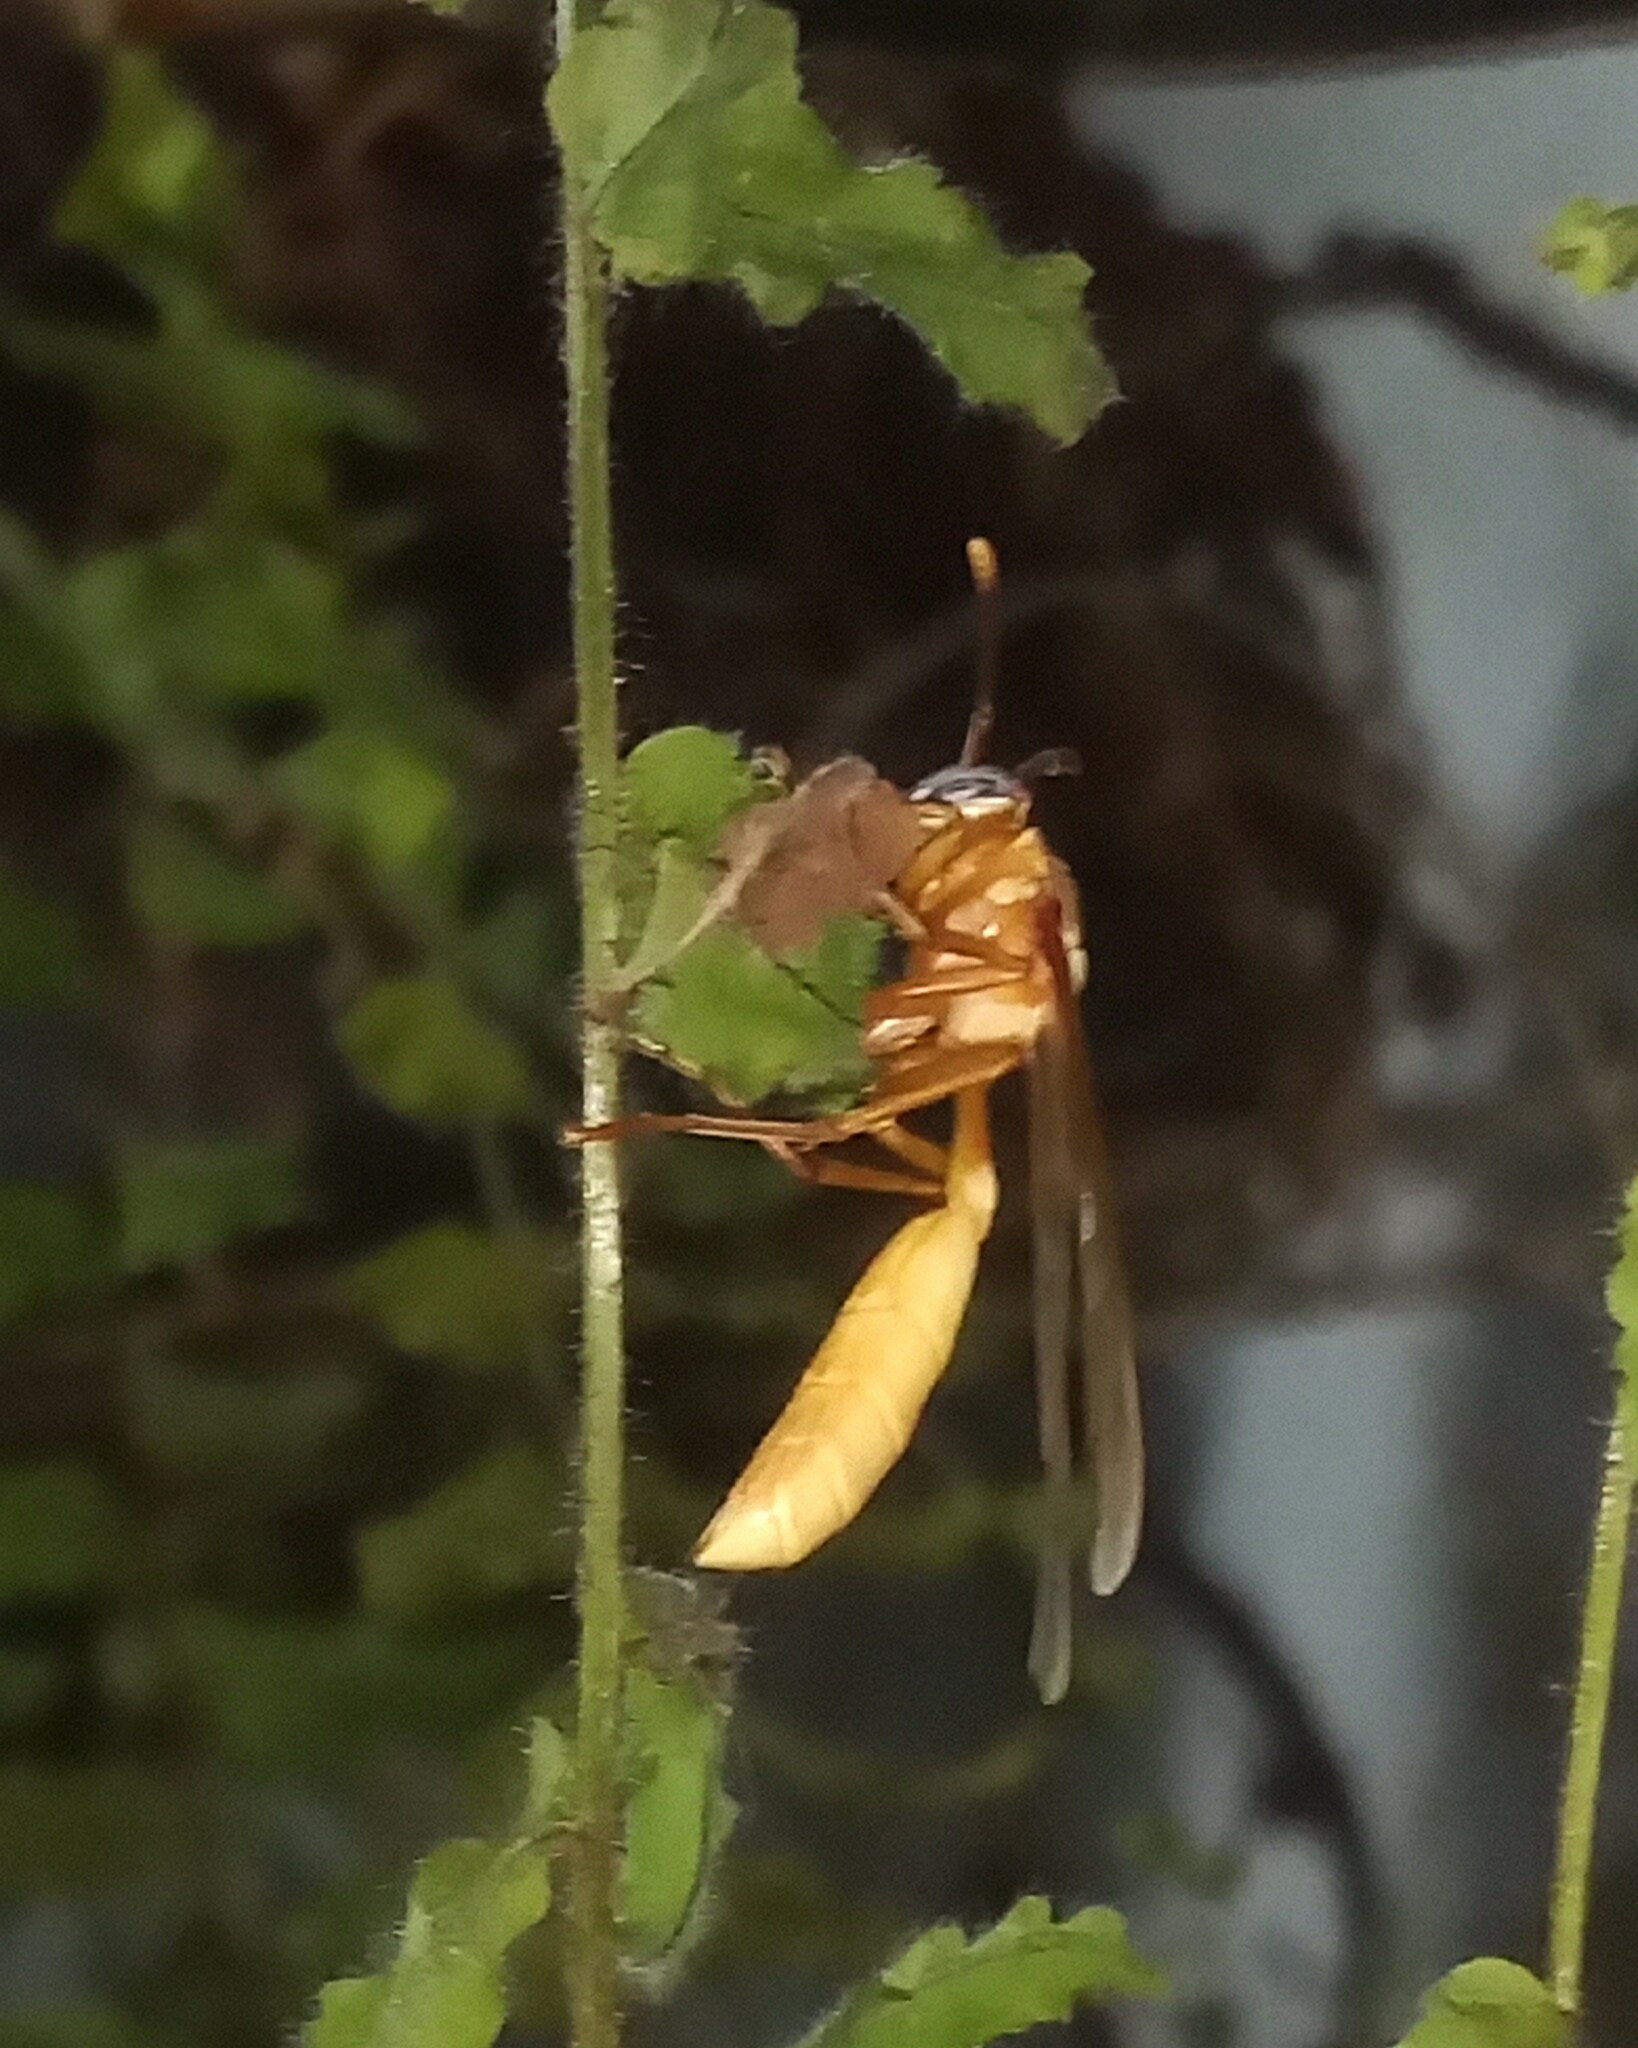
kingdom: Animalia
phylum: Arthropoda
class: Insecta
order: Hymenoptera
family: Vespidae
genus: Apoica
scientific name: Apoica gelida
